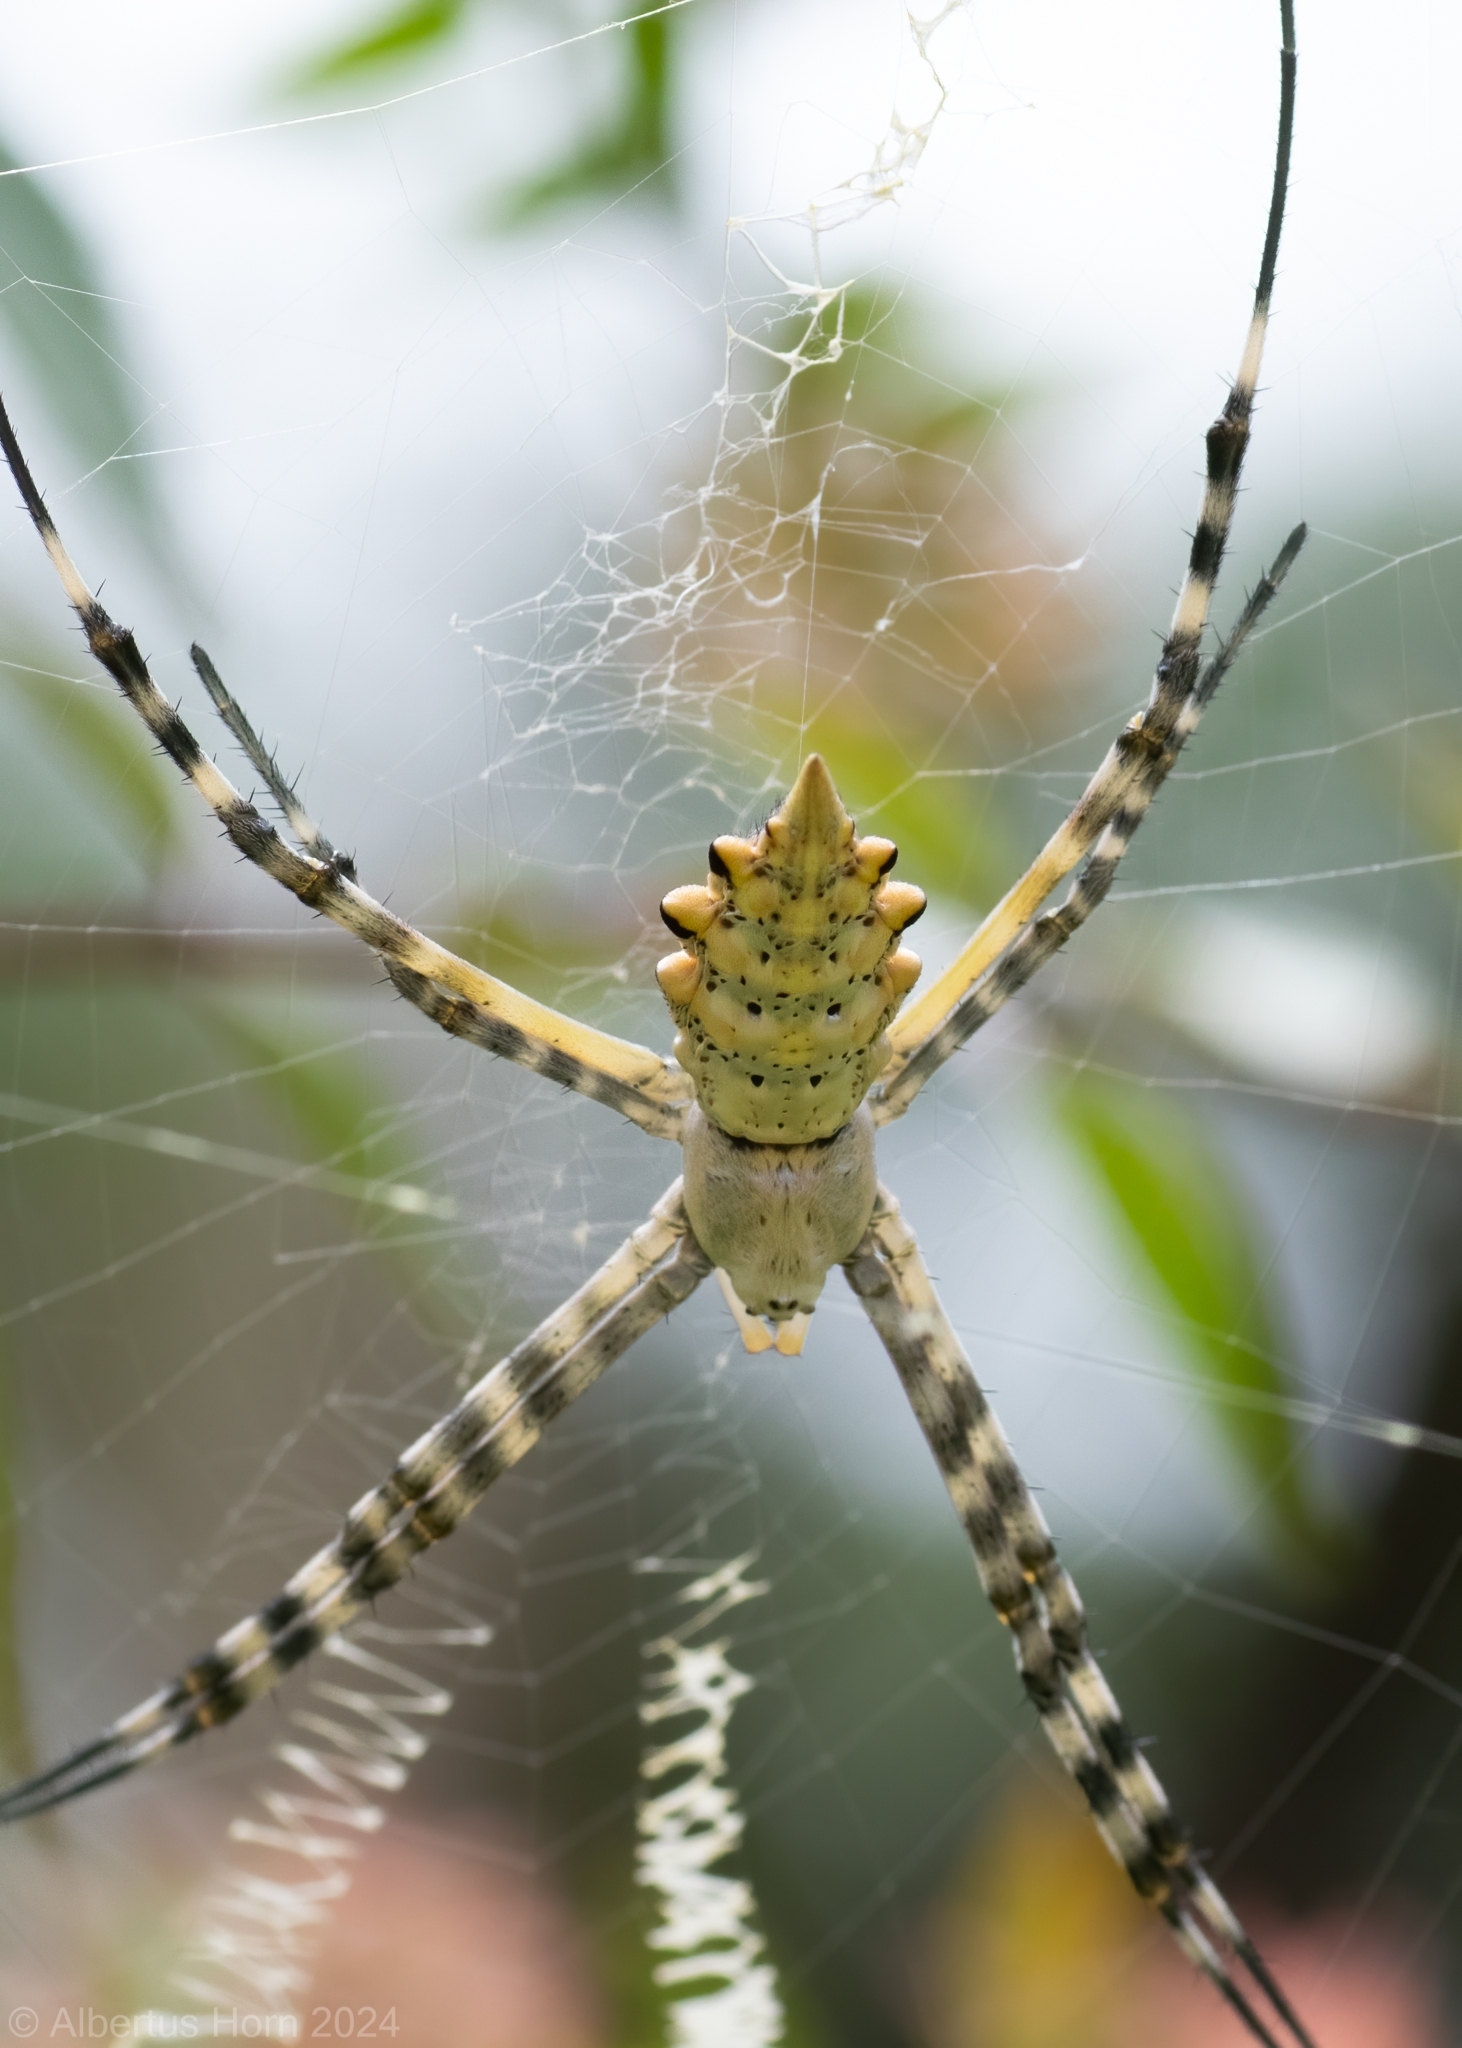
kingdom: Animalia
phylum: Arthropoda
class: Arachnida
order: Araneae
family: Araneidae
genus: Argiope
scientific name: Argiope australis
